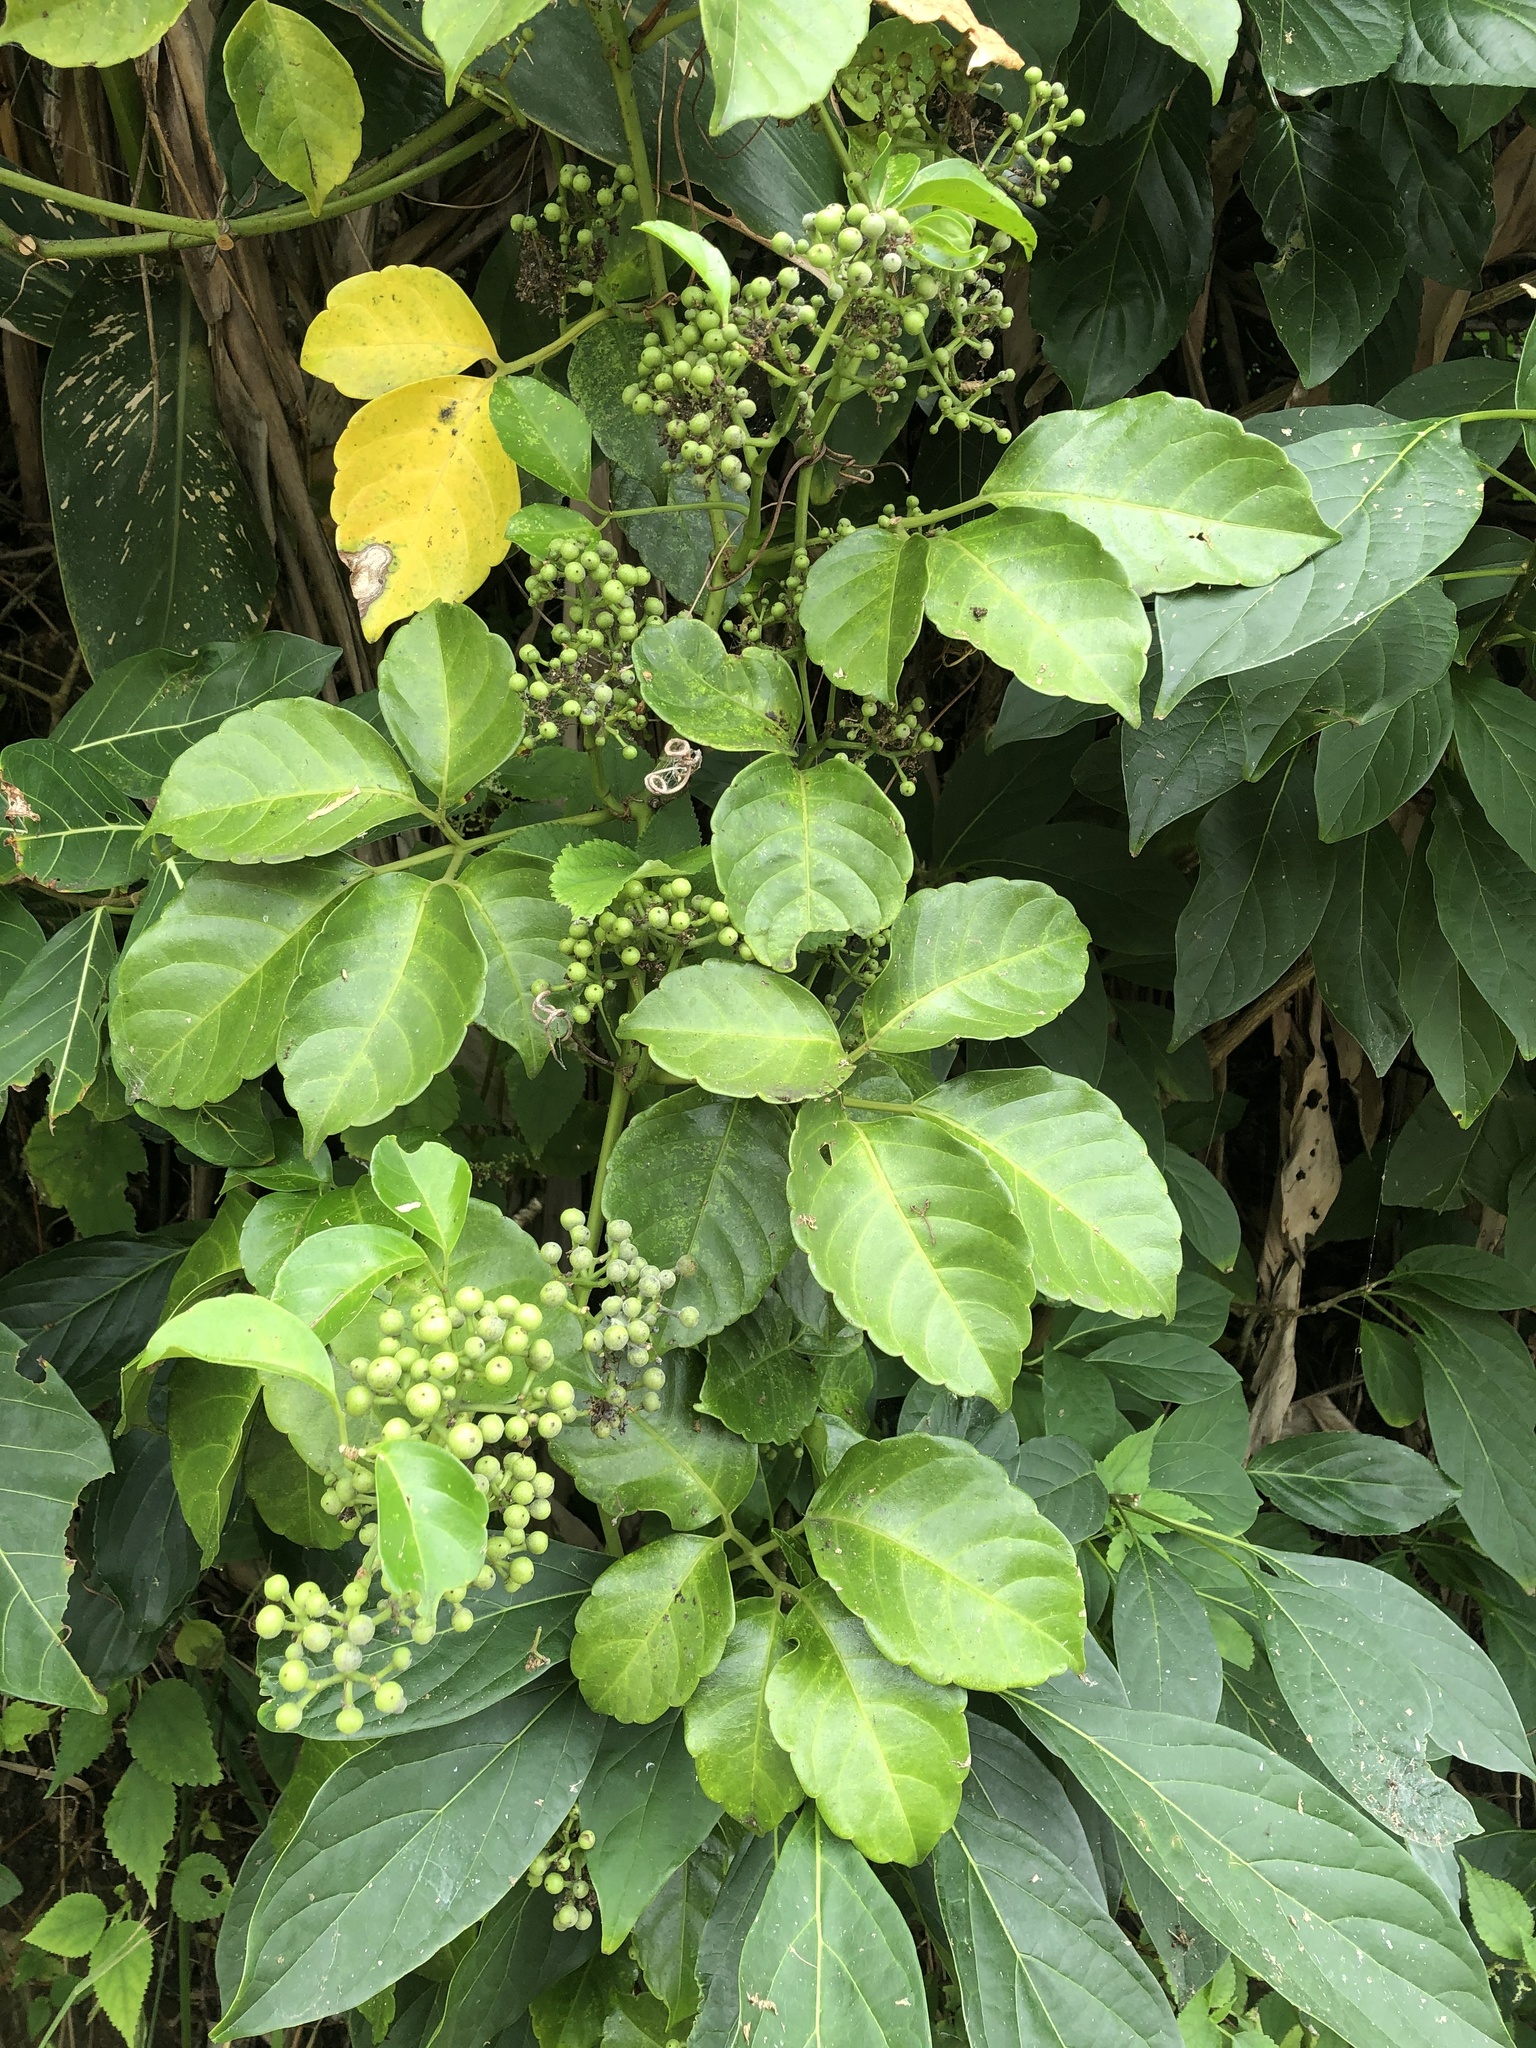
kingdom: Plantae
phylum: Tracheophyta
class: Magnoliopsida
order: Vitales
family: Vitaceae
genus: Tetrastigma
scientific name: Tetrastigma lanyuense
